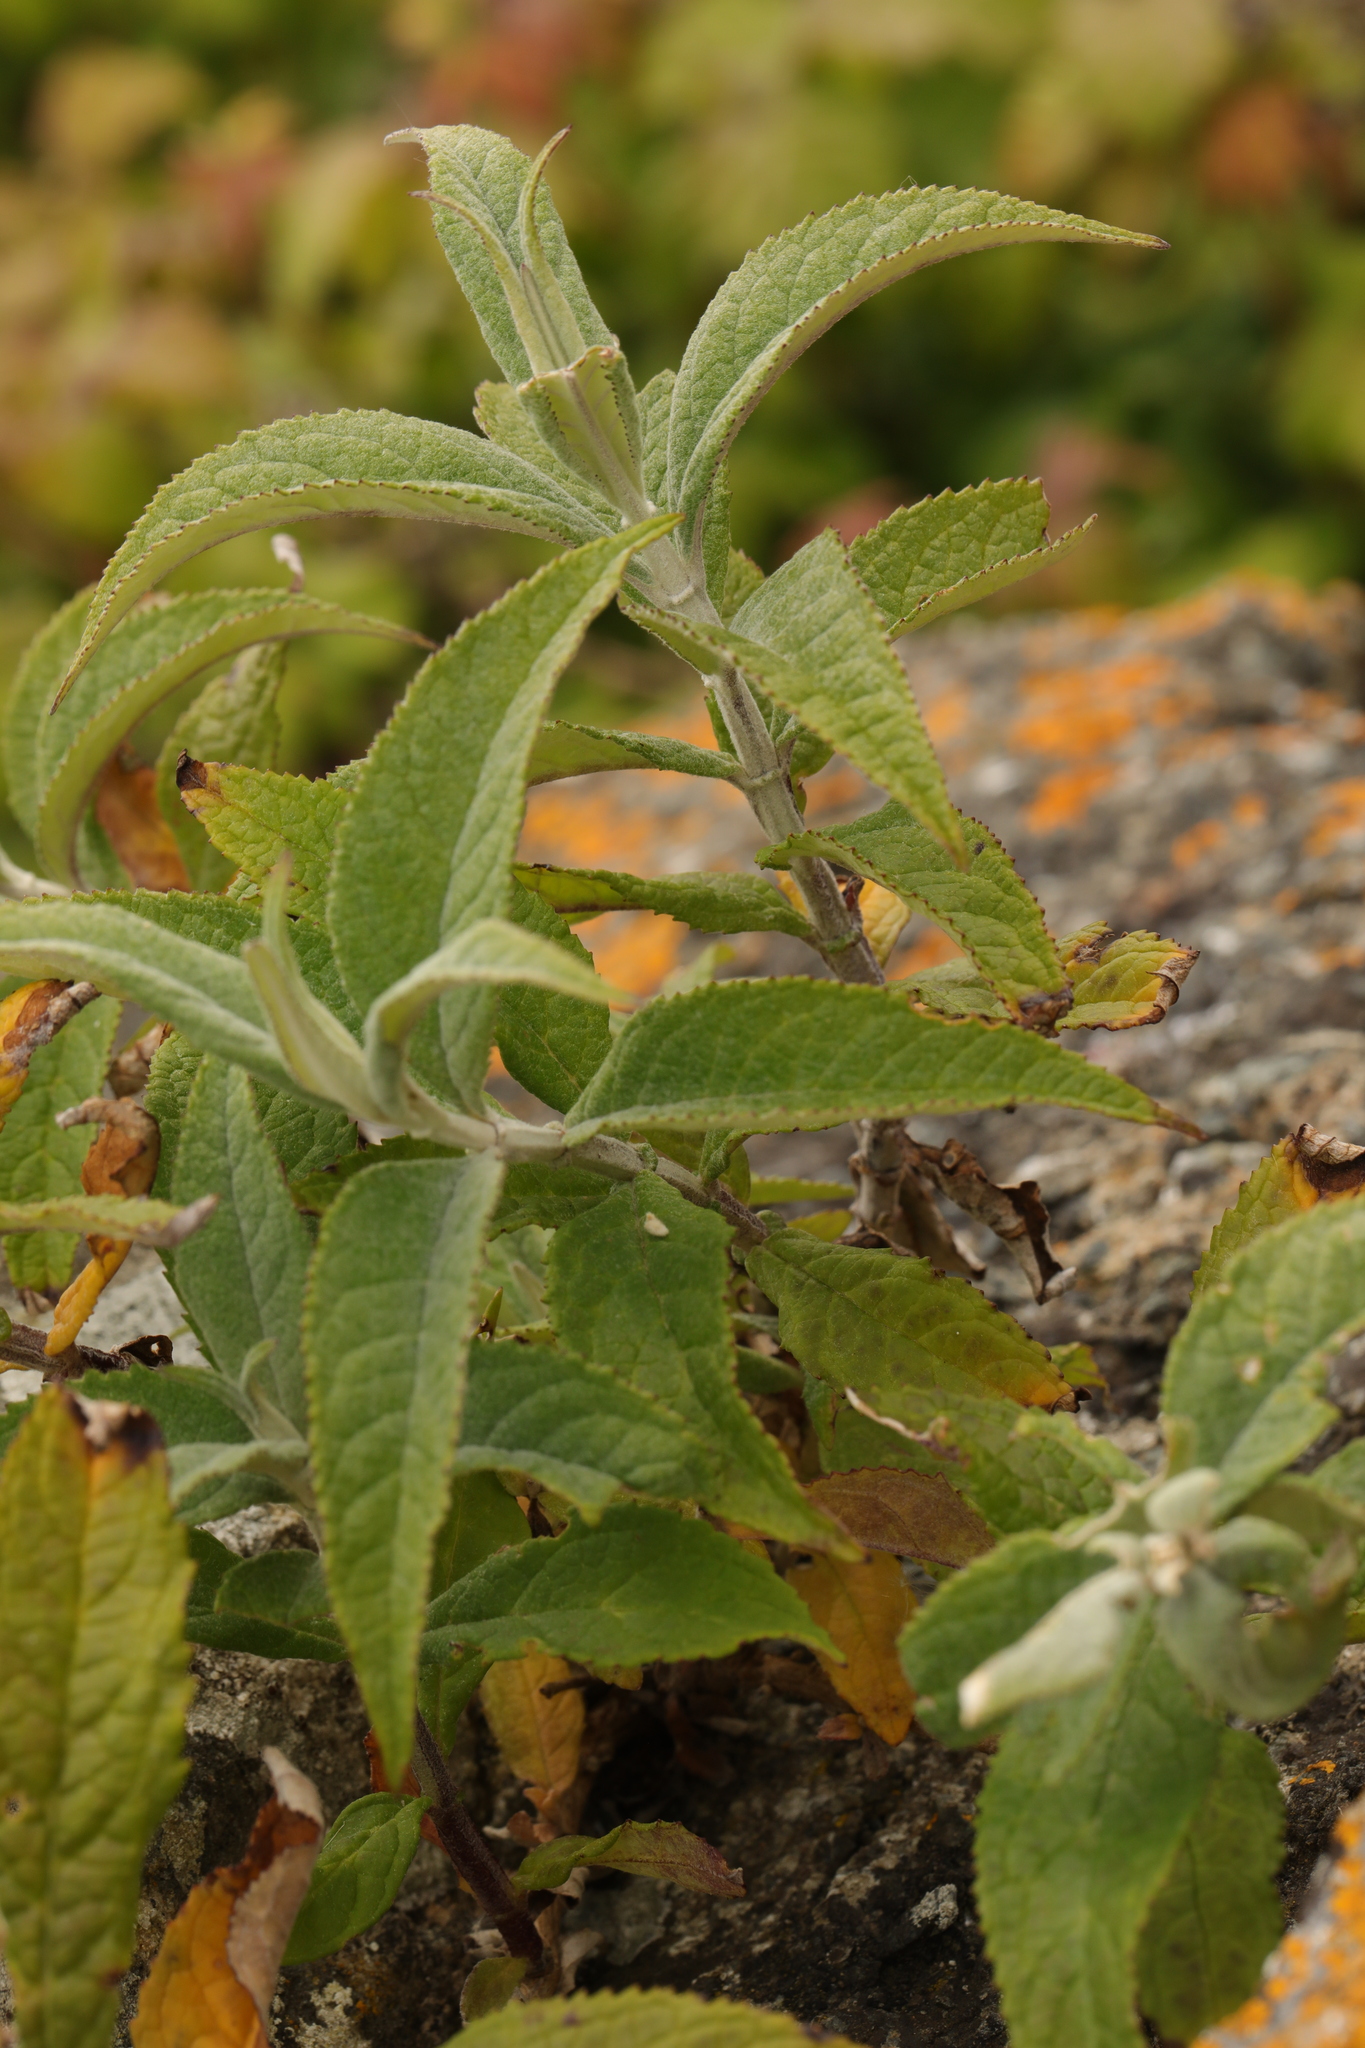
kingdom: Plantae
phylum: Tracheophyta
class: Magnoliopsida
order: Lamiales
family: Scrophulariaceae
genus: Buddleja
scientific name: Buddleja davidii
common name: Butterfly-bush
